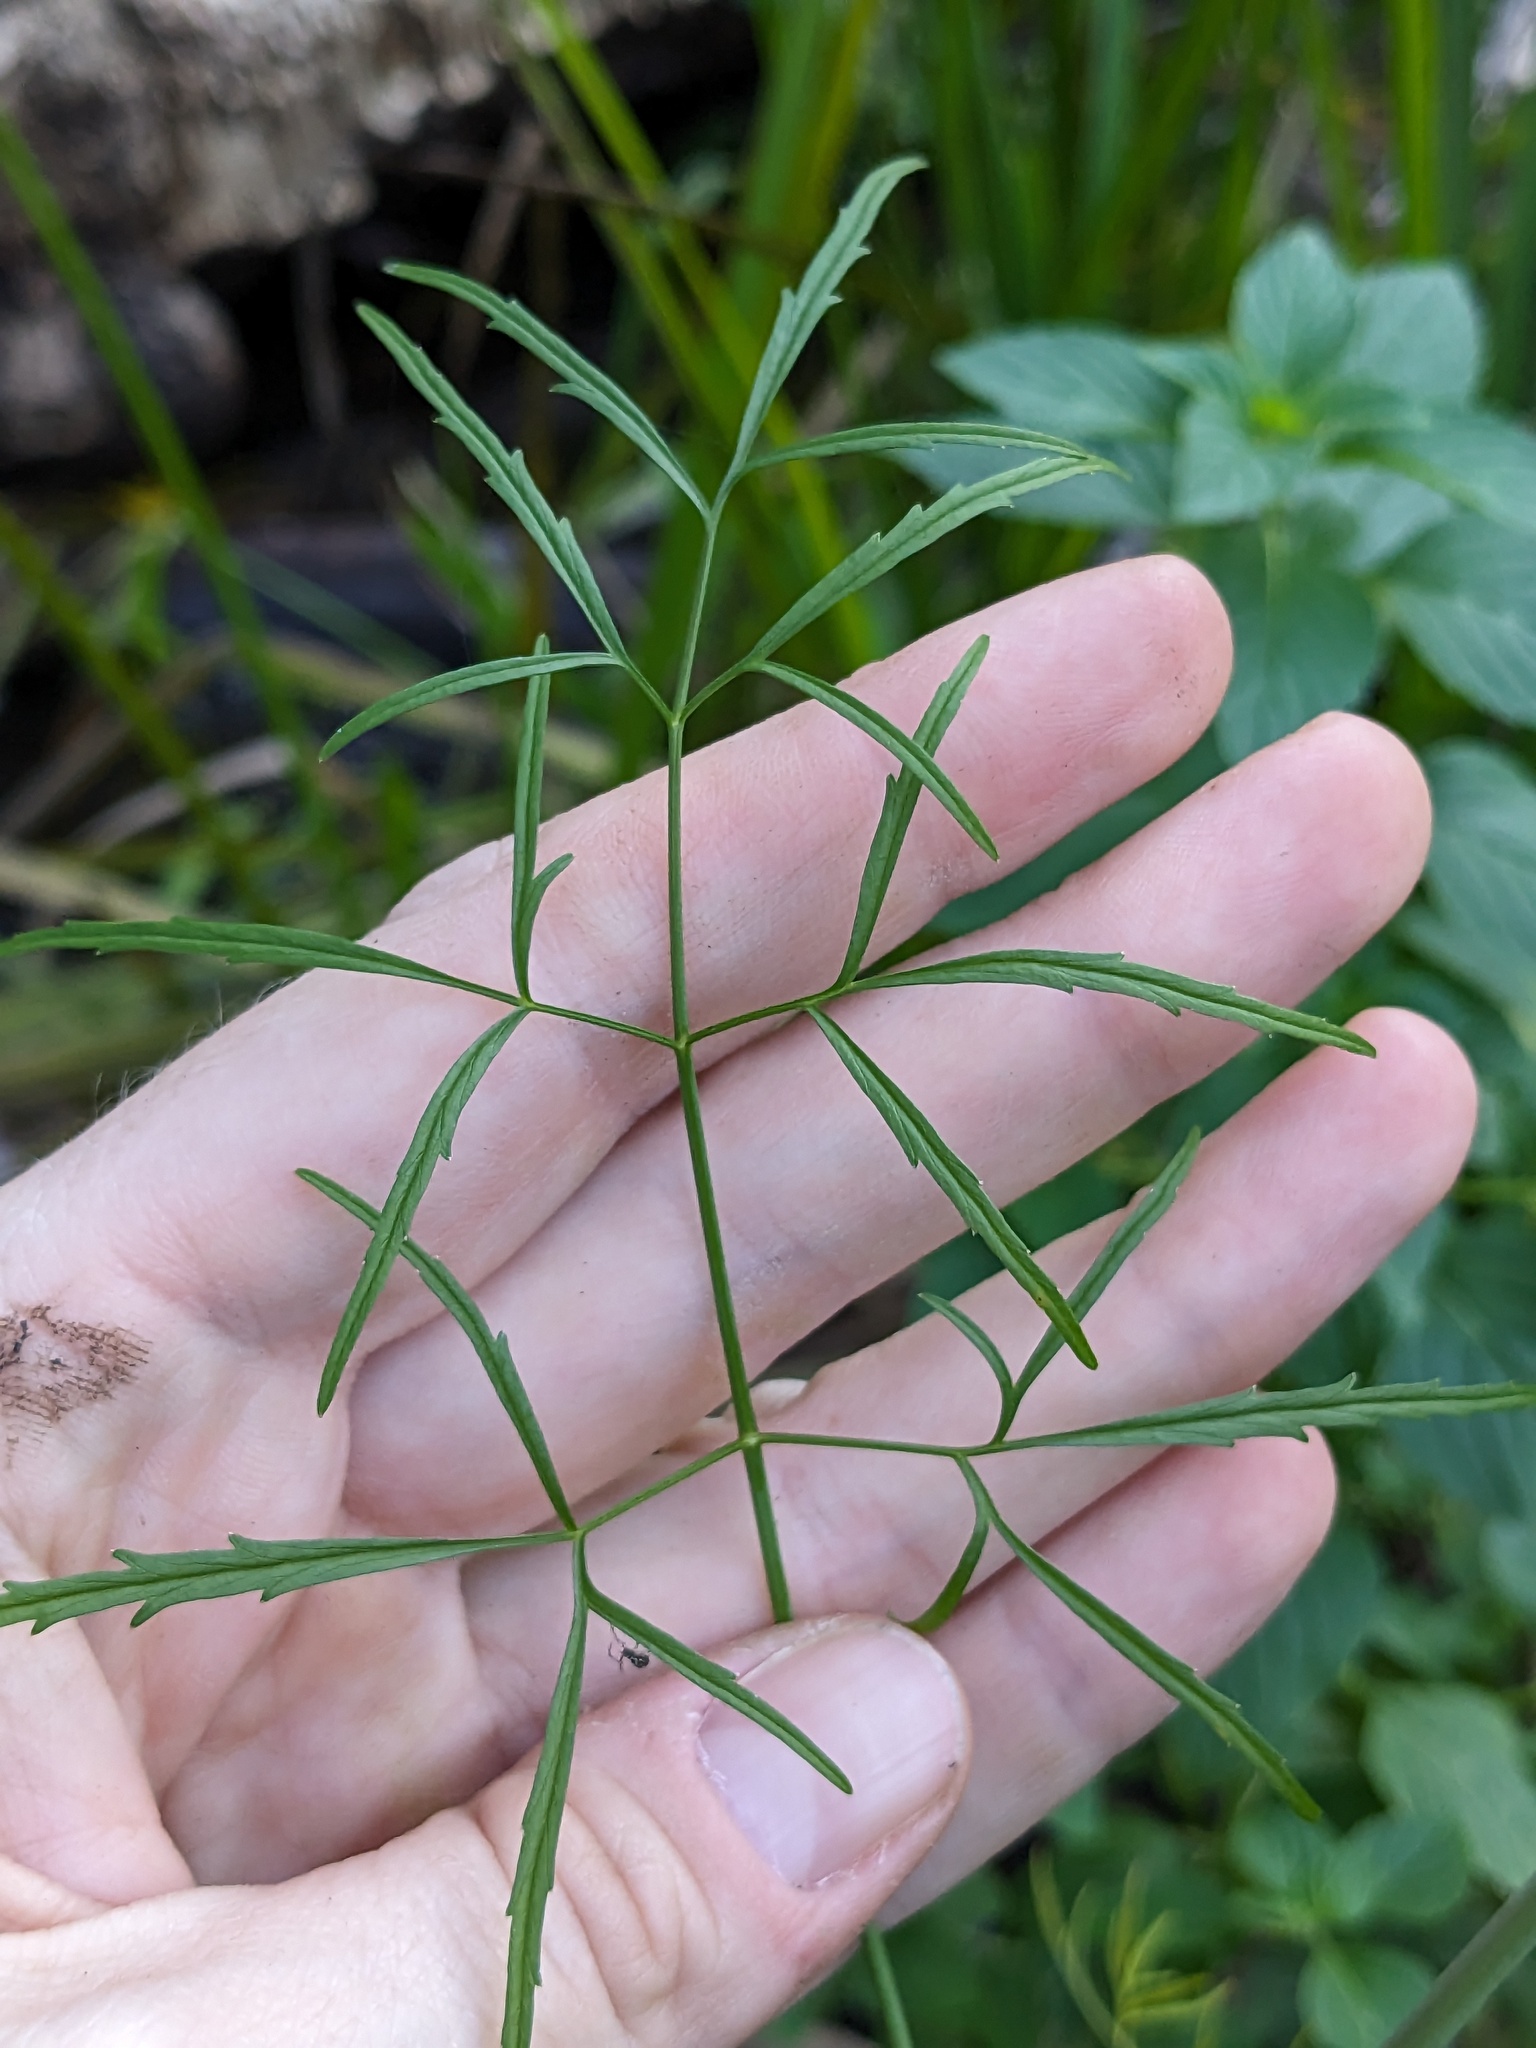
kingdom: Plantae
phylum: Tracheophyta
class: Magnoliopsida
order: Apiales
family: Apiaceae
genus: Cicuta
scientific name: Cicuta bulbifera
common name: Bulb-bearing water-hemlock
